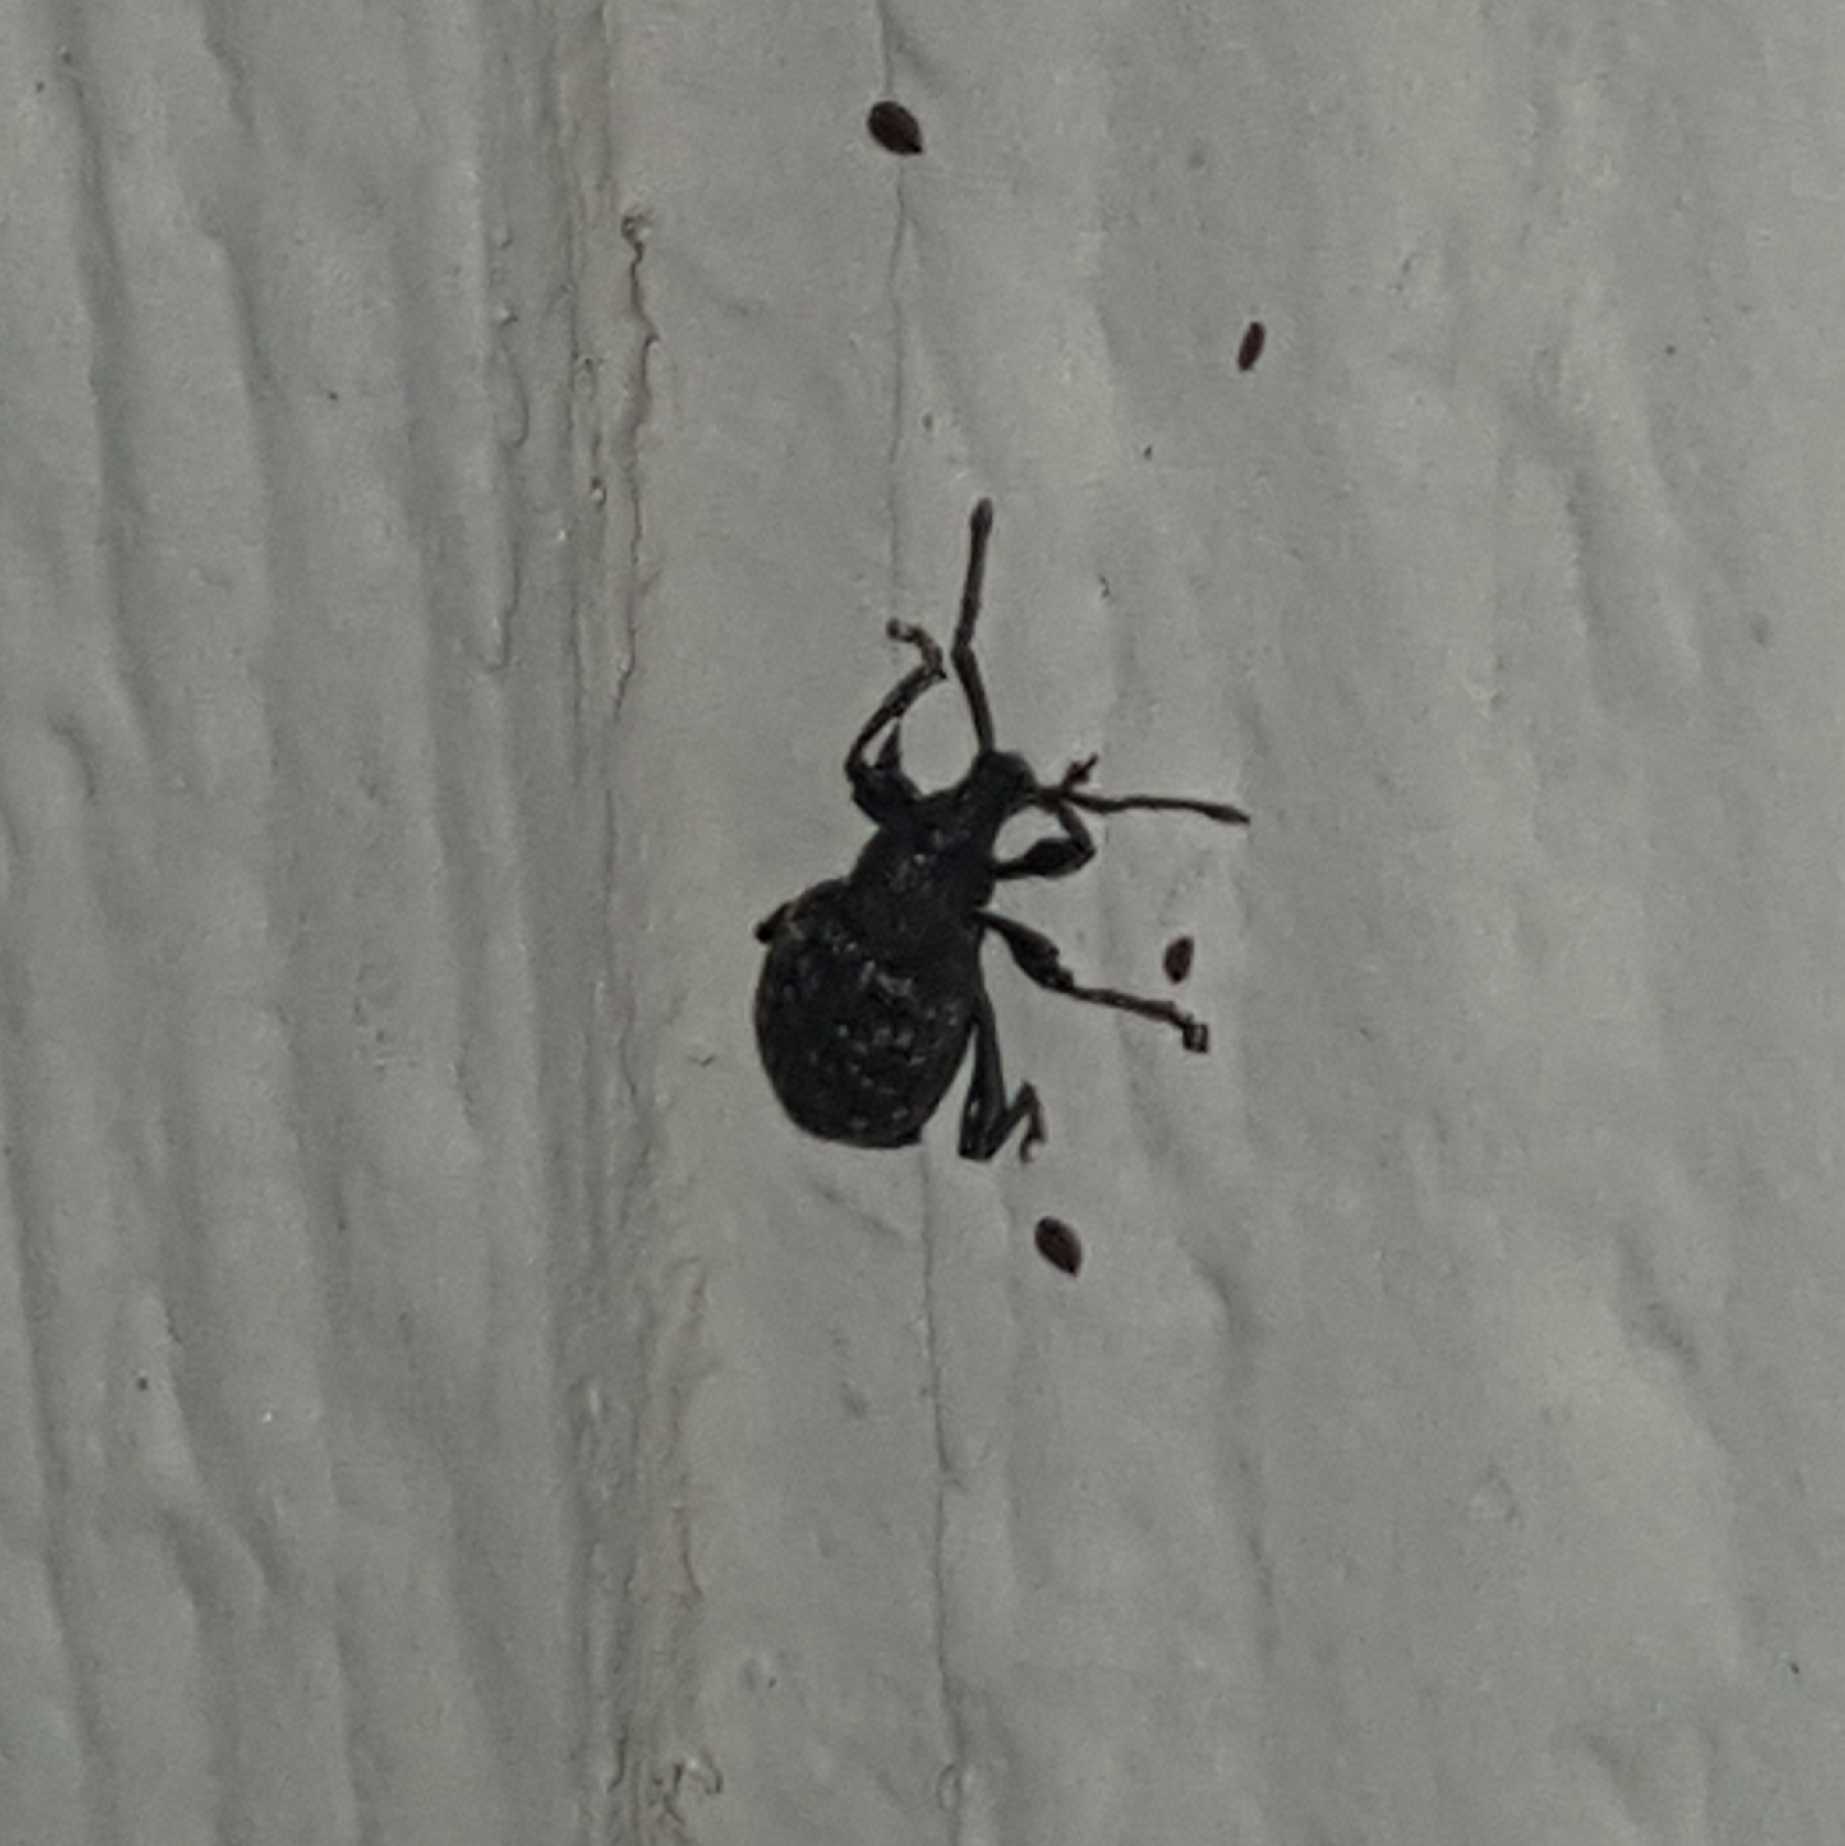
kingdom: Animalia
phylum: Arthropoda
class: Insecta
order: Coleoptera
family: Curculionidae
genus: Otiorhynchus
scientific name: Otiorhynchus sulcatus
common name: Black vine weevil
